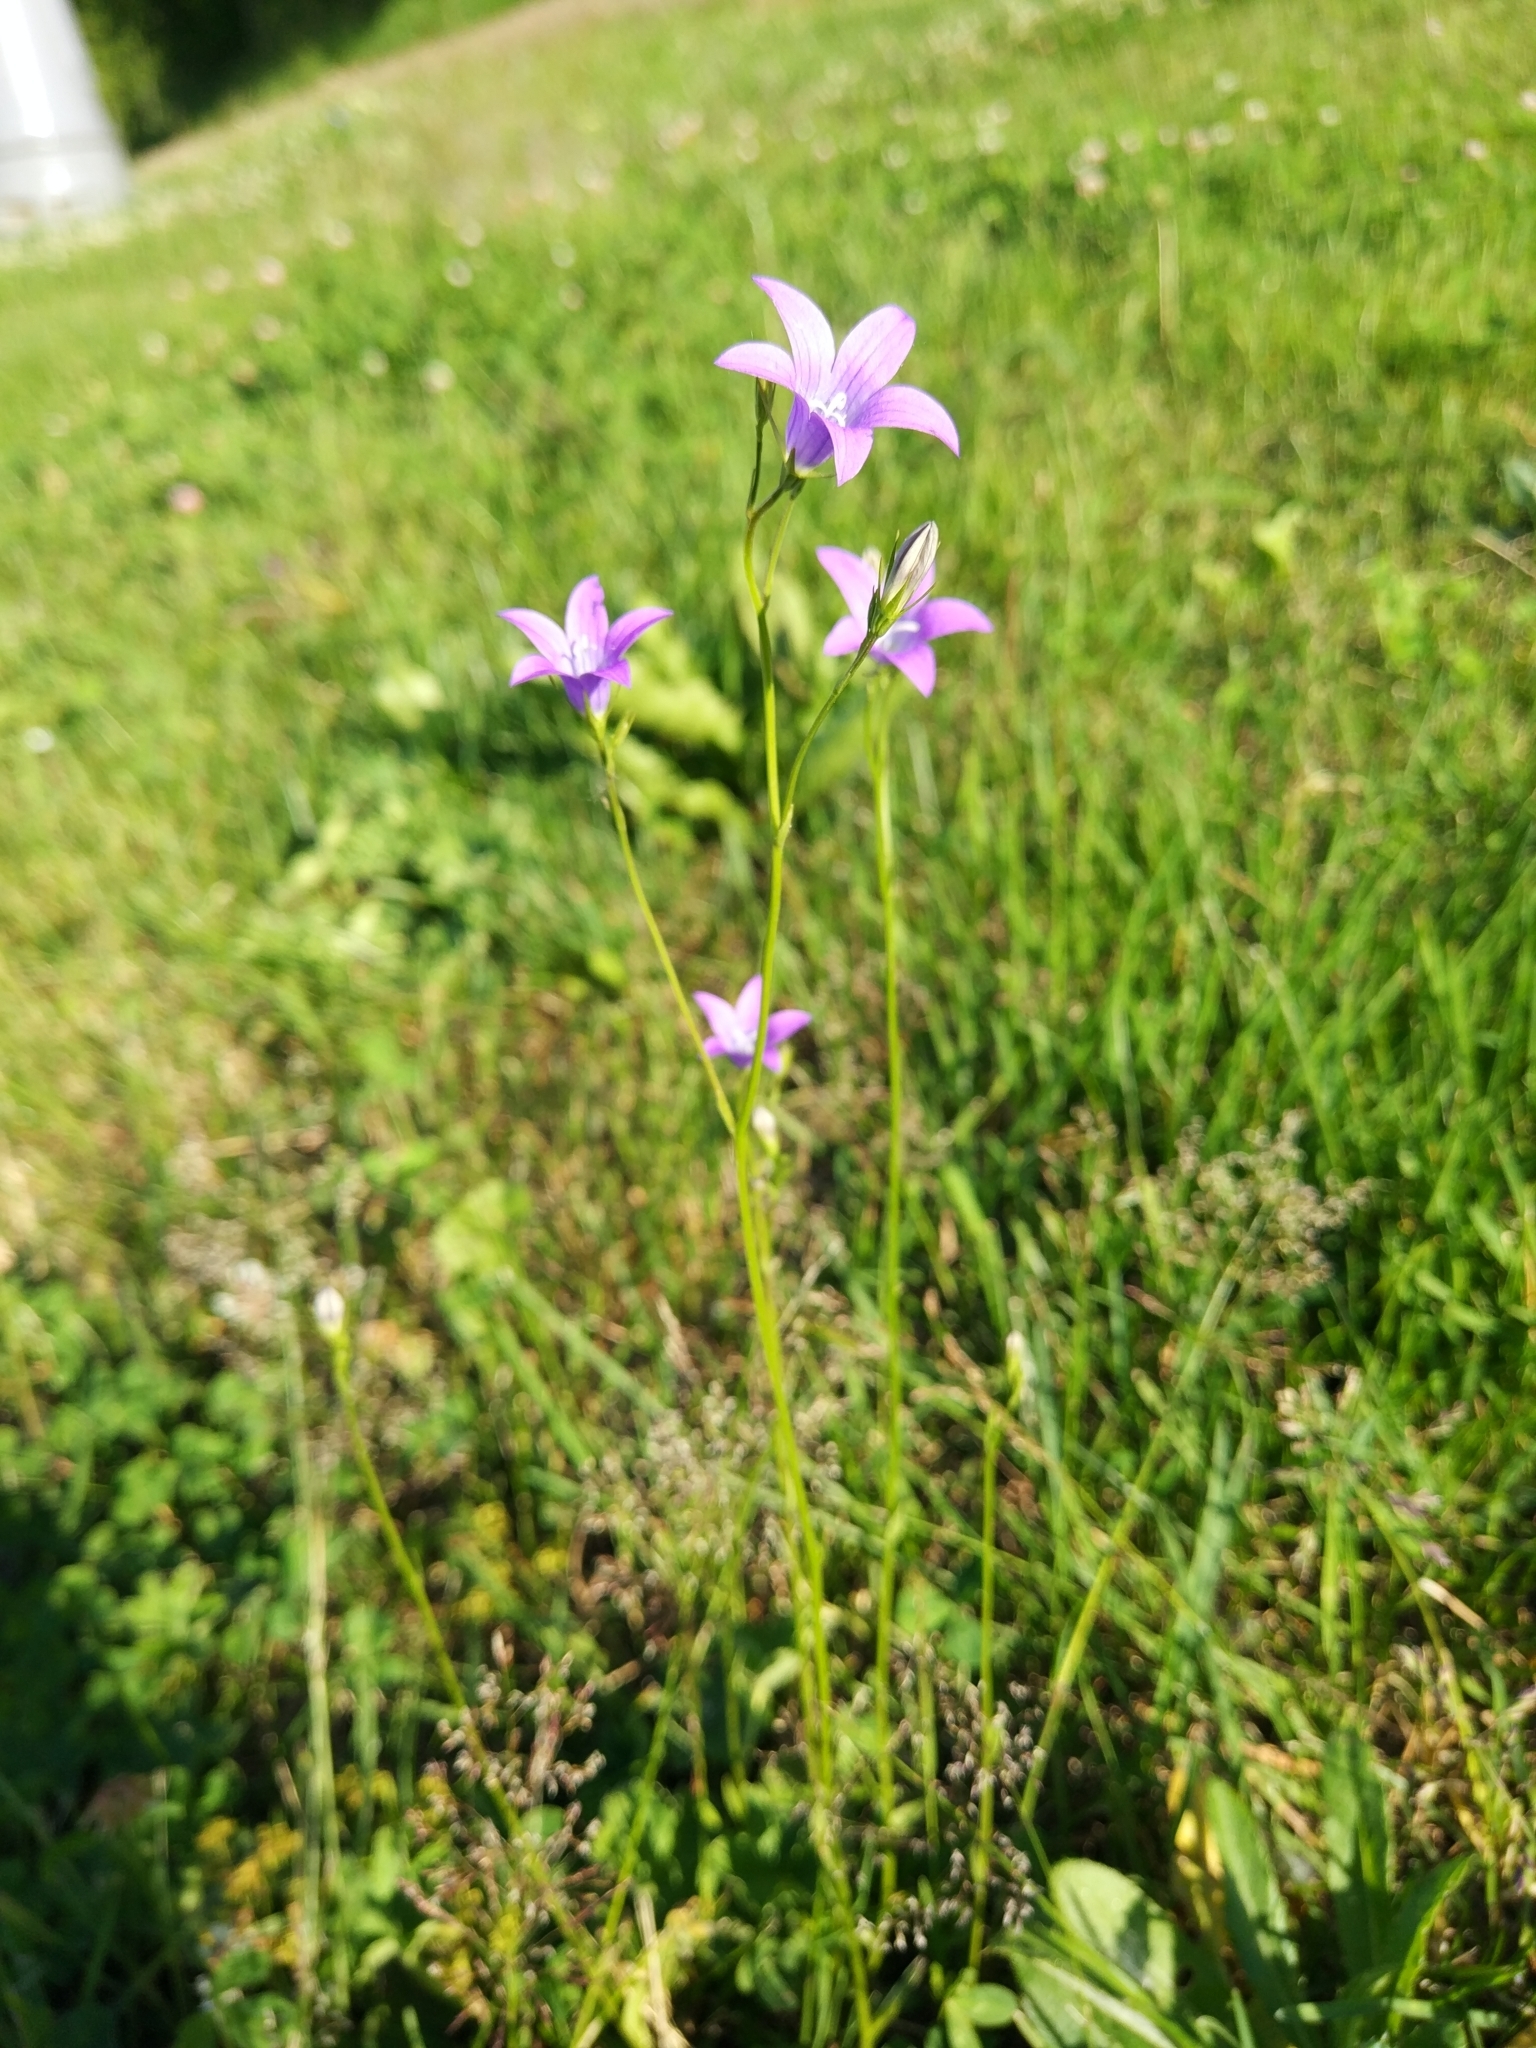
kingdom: Plantae
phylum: Tracheophyta
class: Magnoliopsida
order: Asterales
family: Campanulaceae
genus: Campanula
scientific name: Campanula patula
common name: Spreading bellflower
